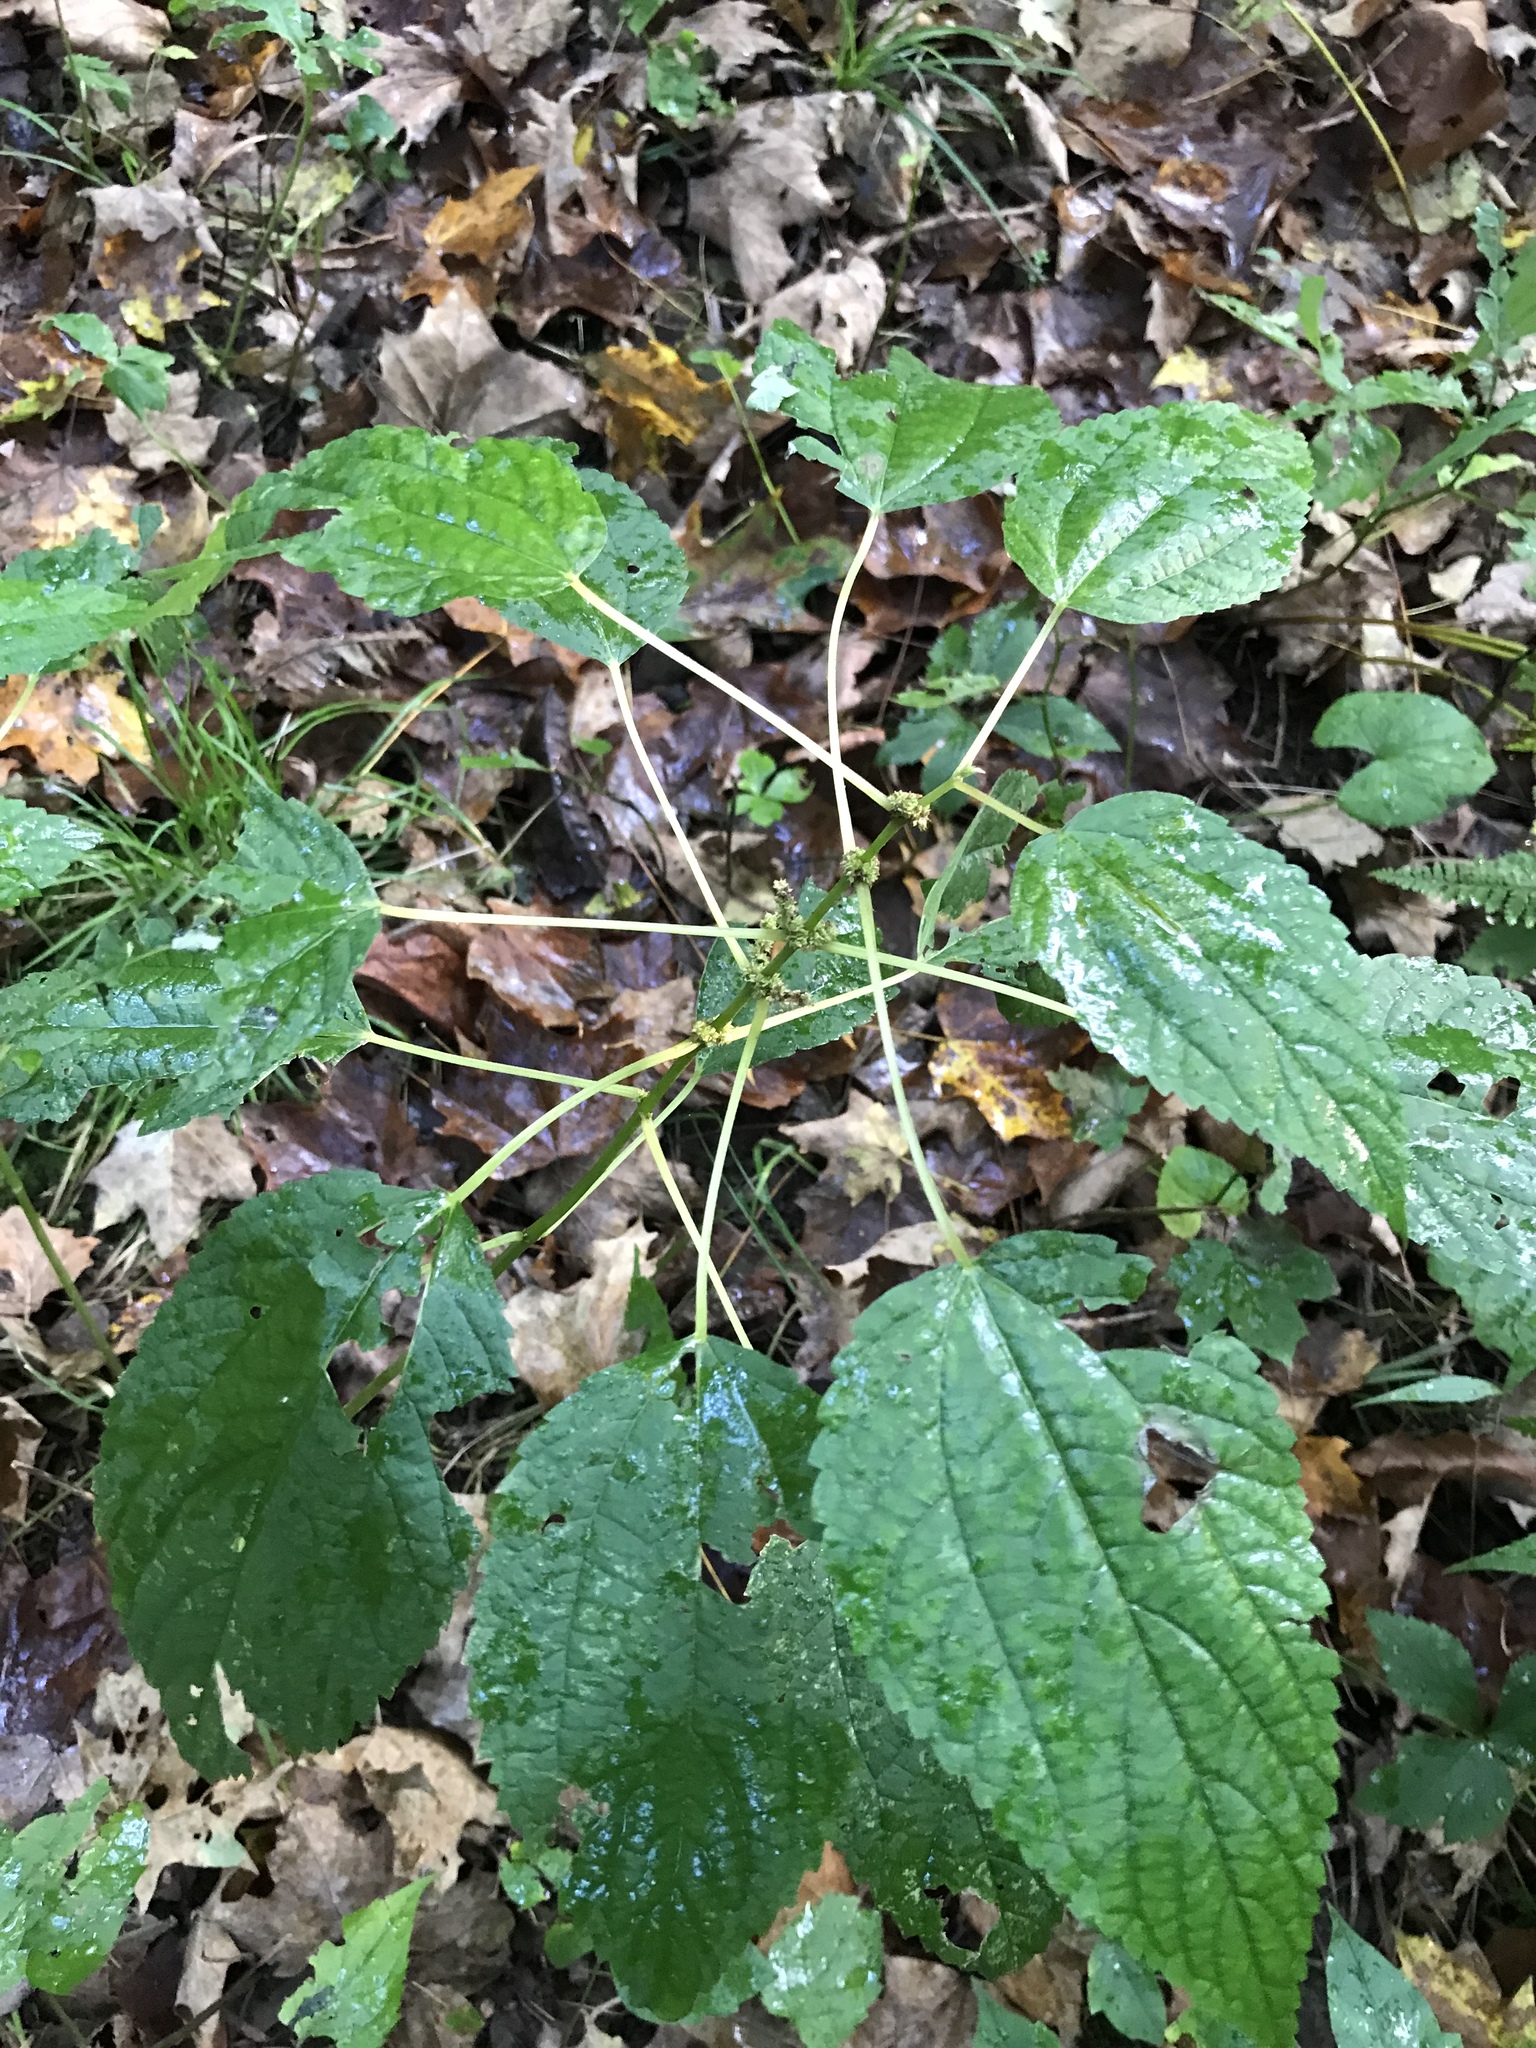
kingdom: Plantae
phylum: Tracheophyta
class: Magnoliopsida
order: Rosales
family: Urticaceae
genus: Boehmeria
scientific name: Boehmeria cylindrica
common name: Bog-hemp
